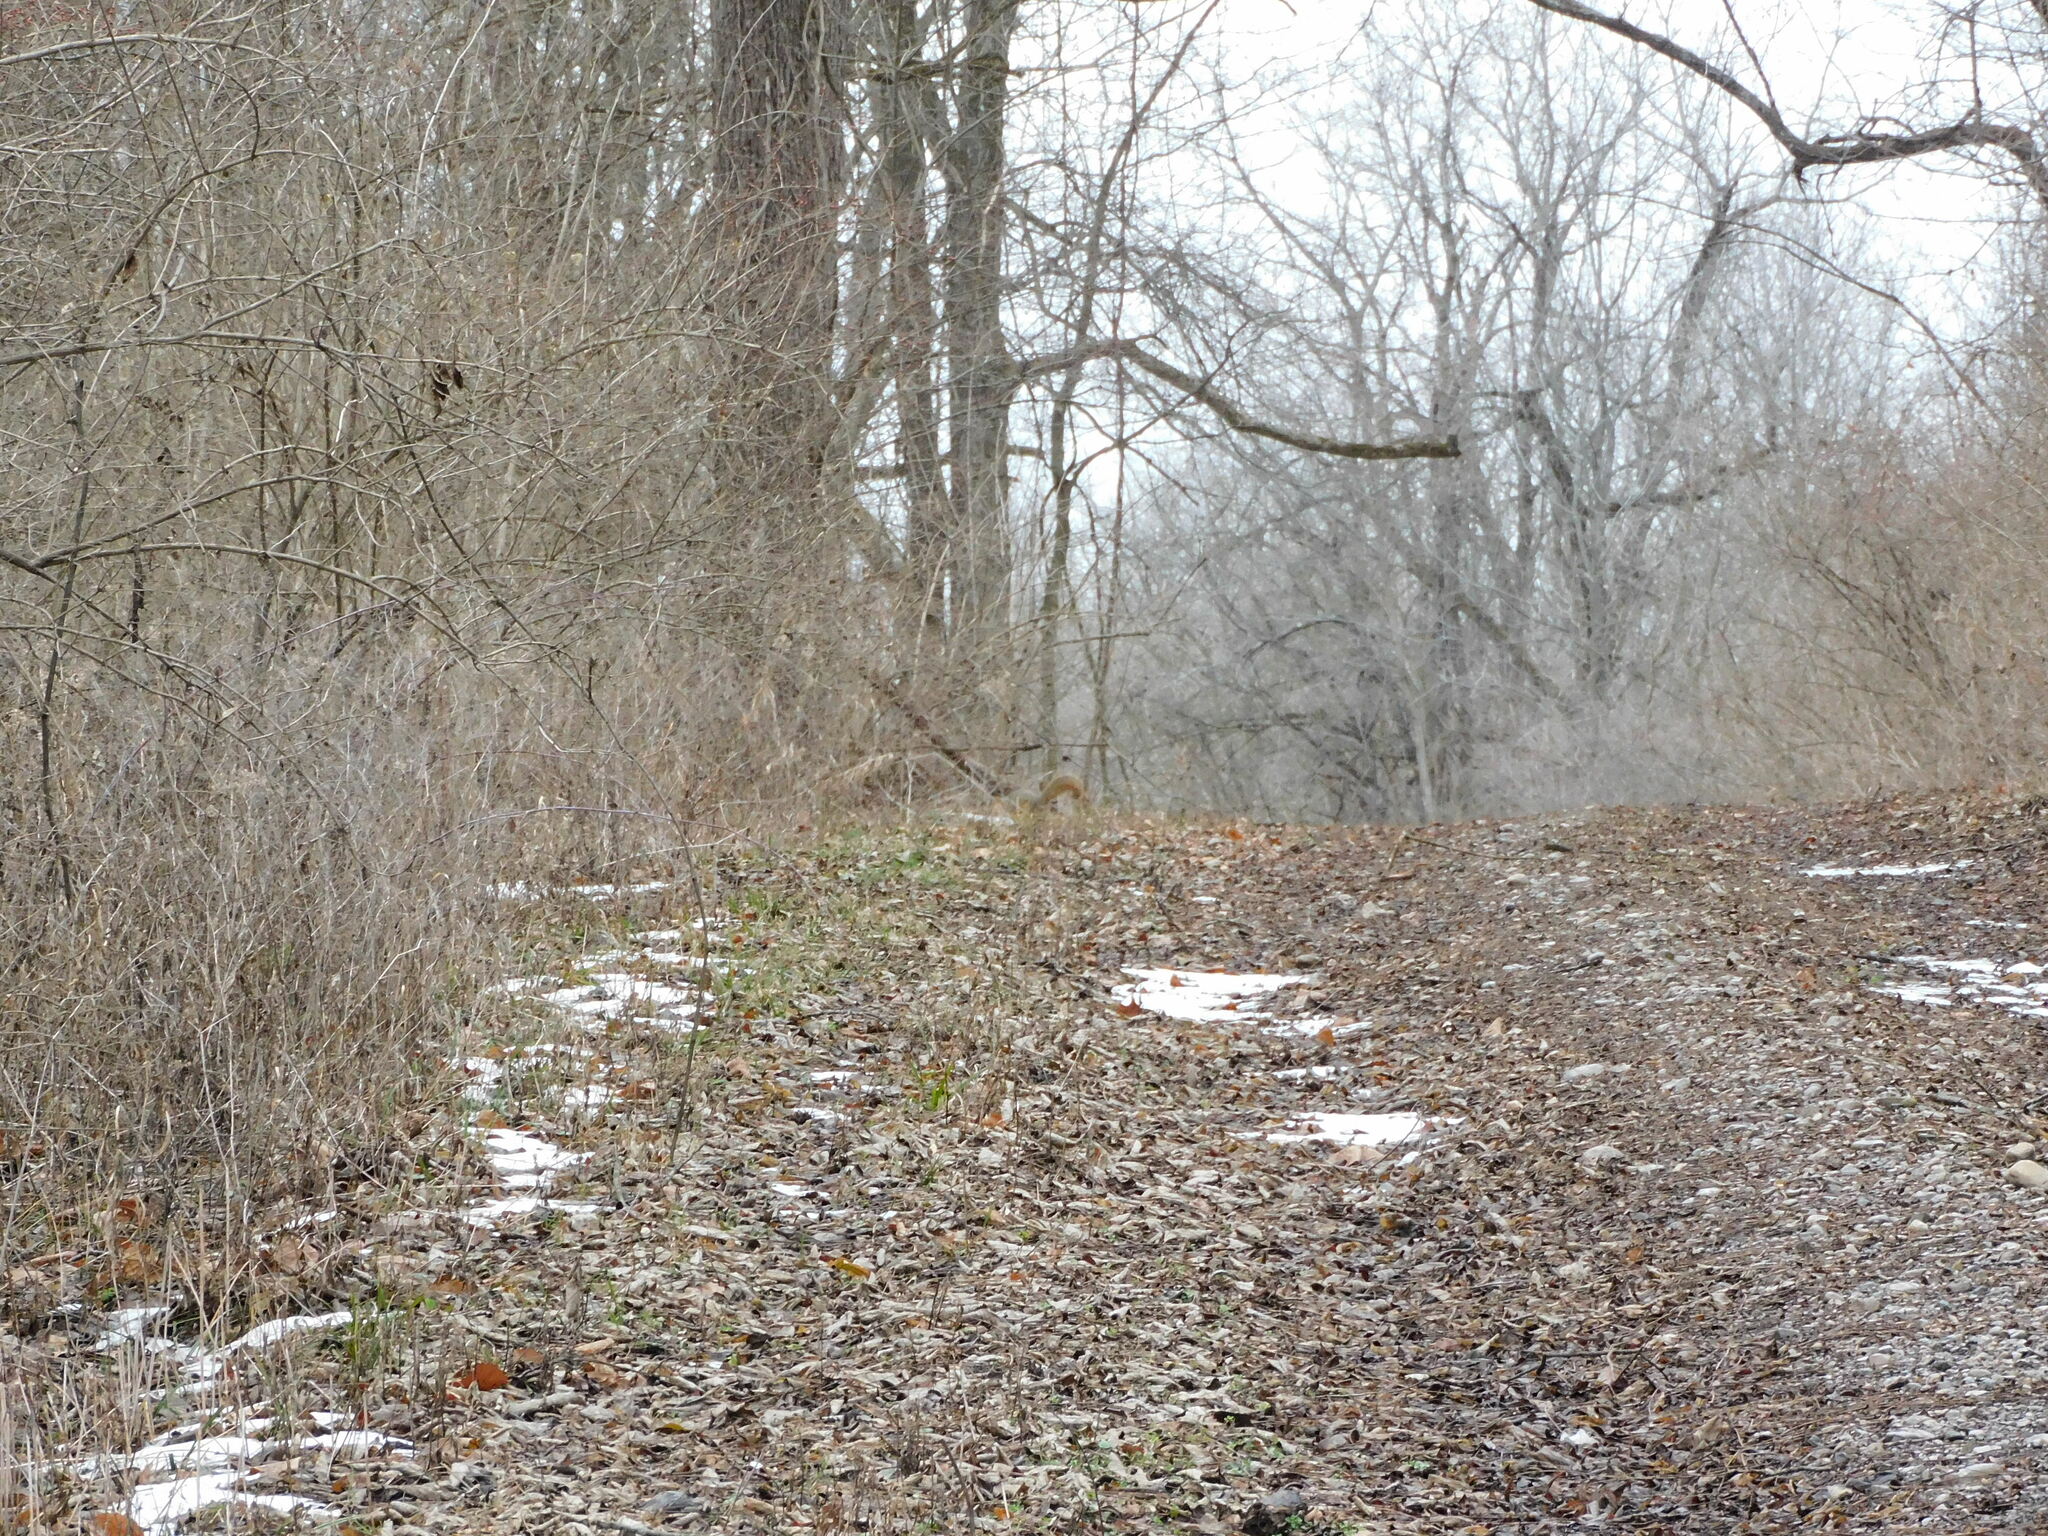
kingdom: Animalia
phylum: Chordata
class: Mammalia
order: Rodentia
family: Sciuridae
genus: Sciurus
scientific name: Sciurus niger
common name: Fox squirrel
